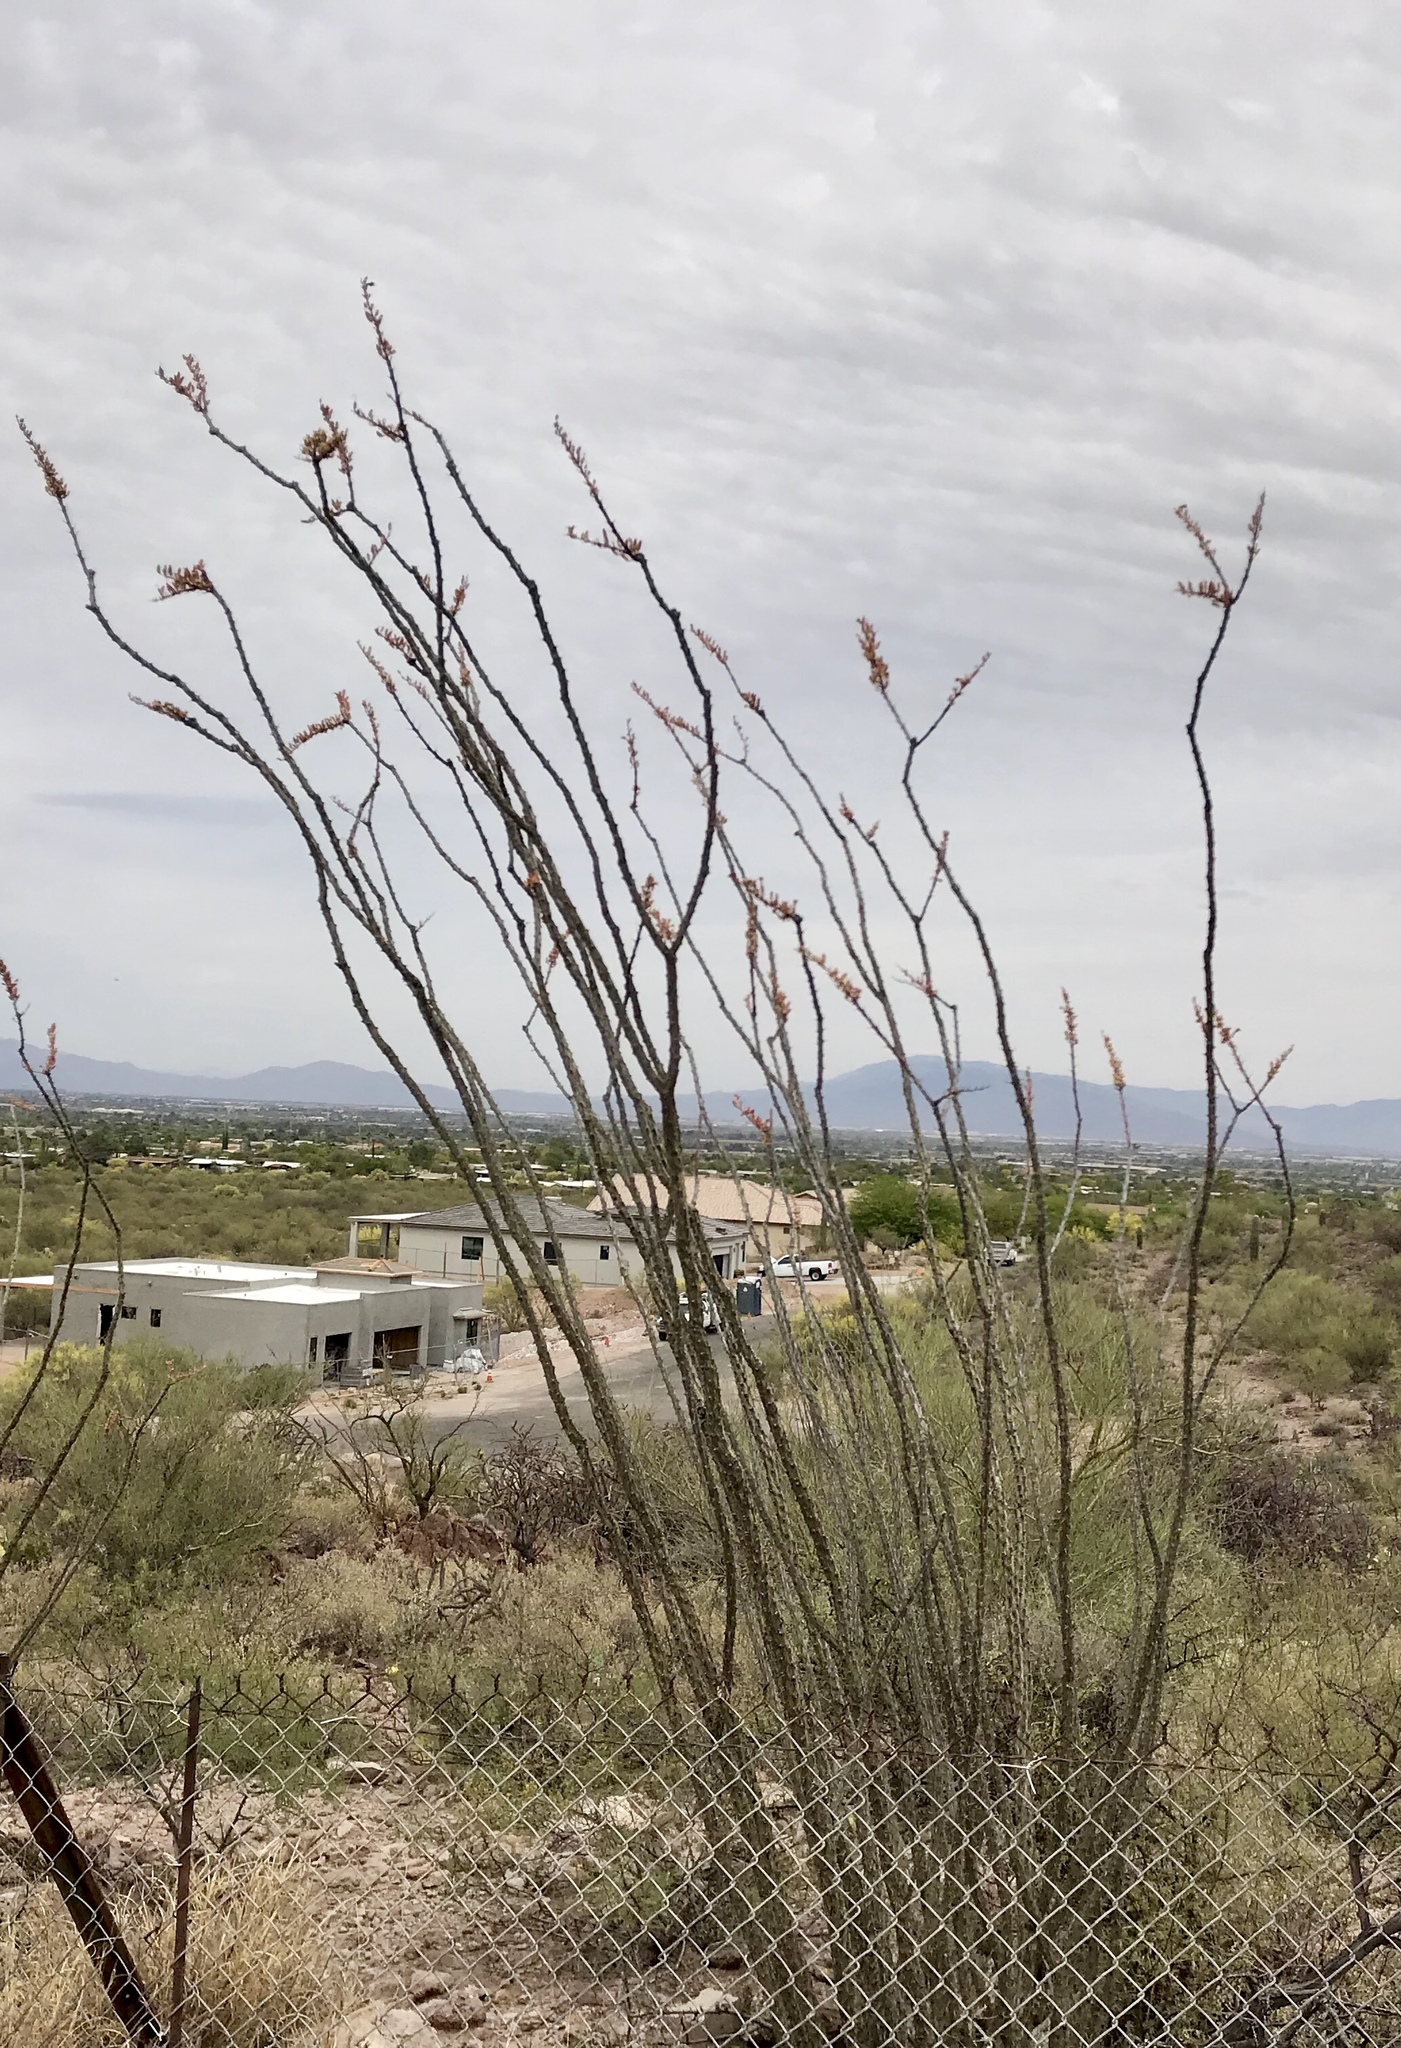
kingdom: Plantae
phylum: Tracheophyta
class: Magnoliopsida
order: Ericales
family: Fouquieriaceae
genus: Fouquieria
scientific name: Fouquieria splendens
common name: Vine-cactus
